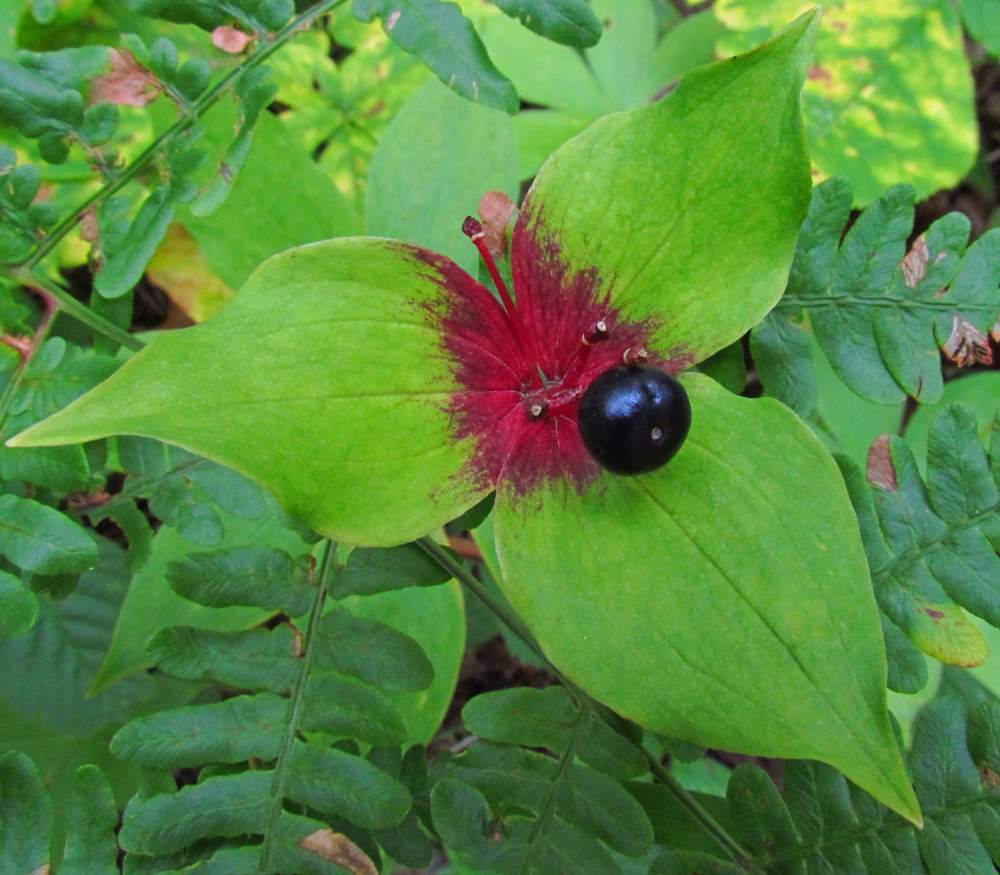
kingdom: Plantae
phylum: Tracheophyta
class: Liliopsida
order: Liliales
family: Liliaceae
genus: Medeola
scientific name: Medeola virginiana
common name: Indian cucumber-root
